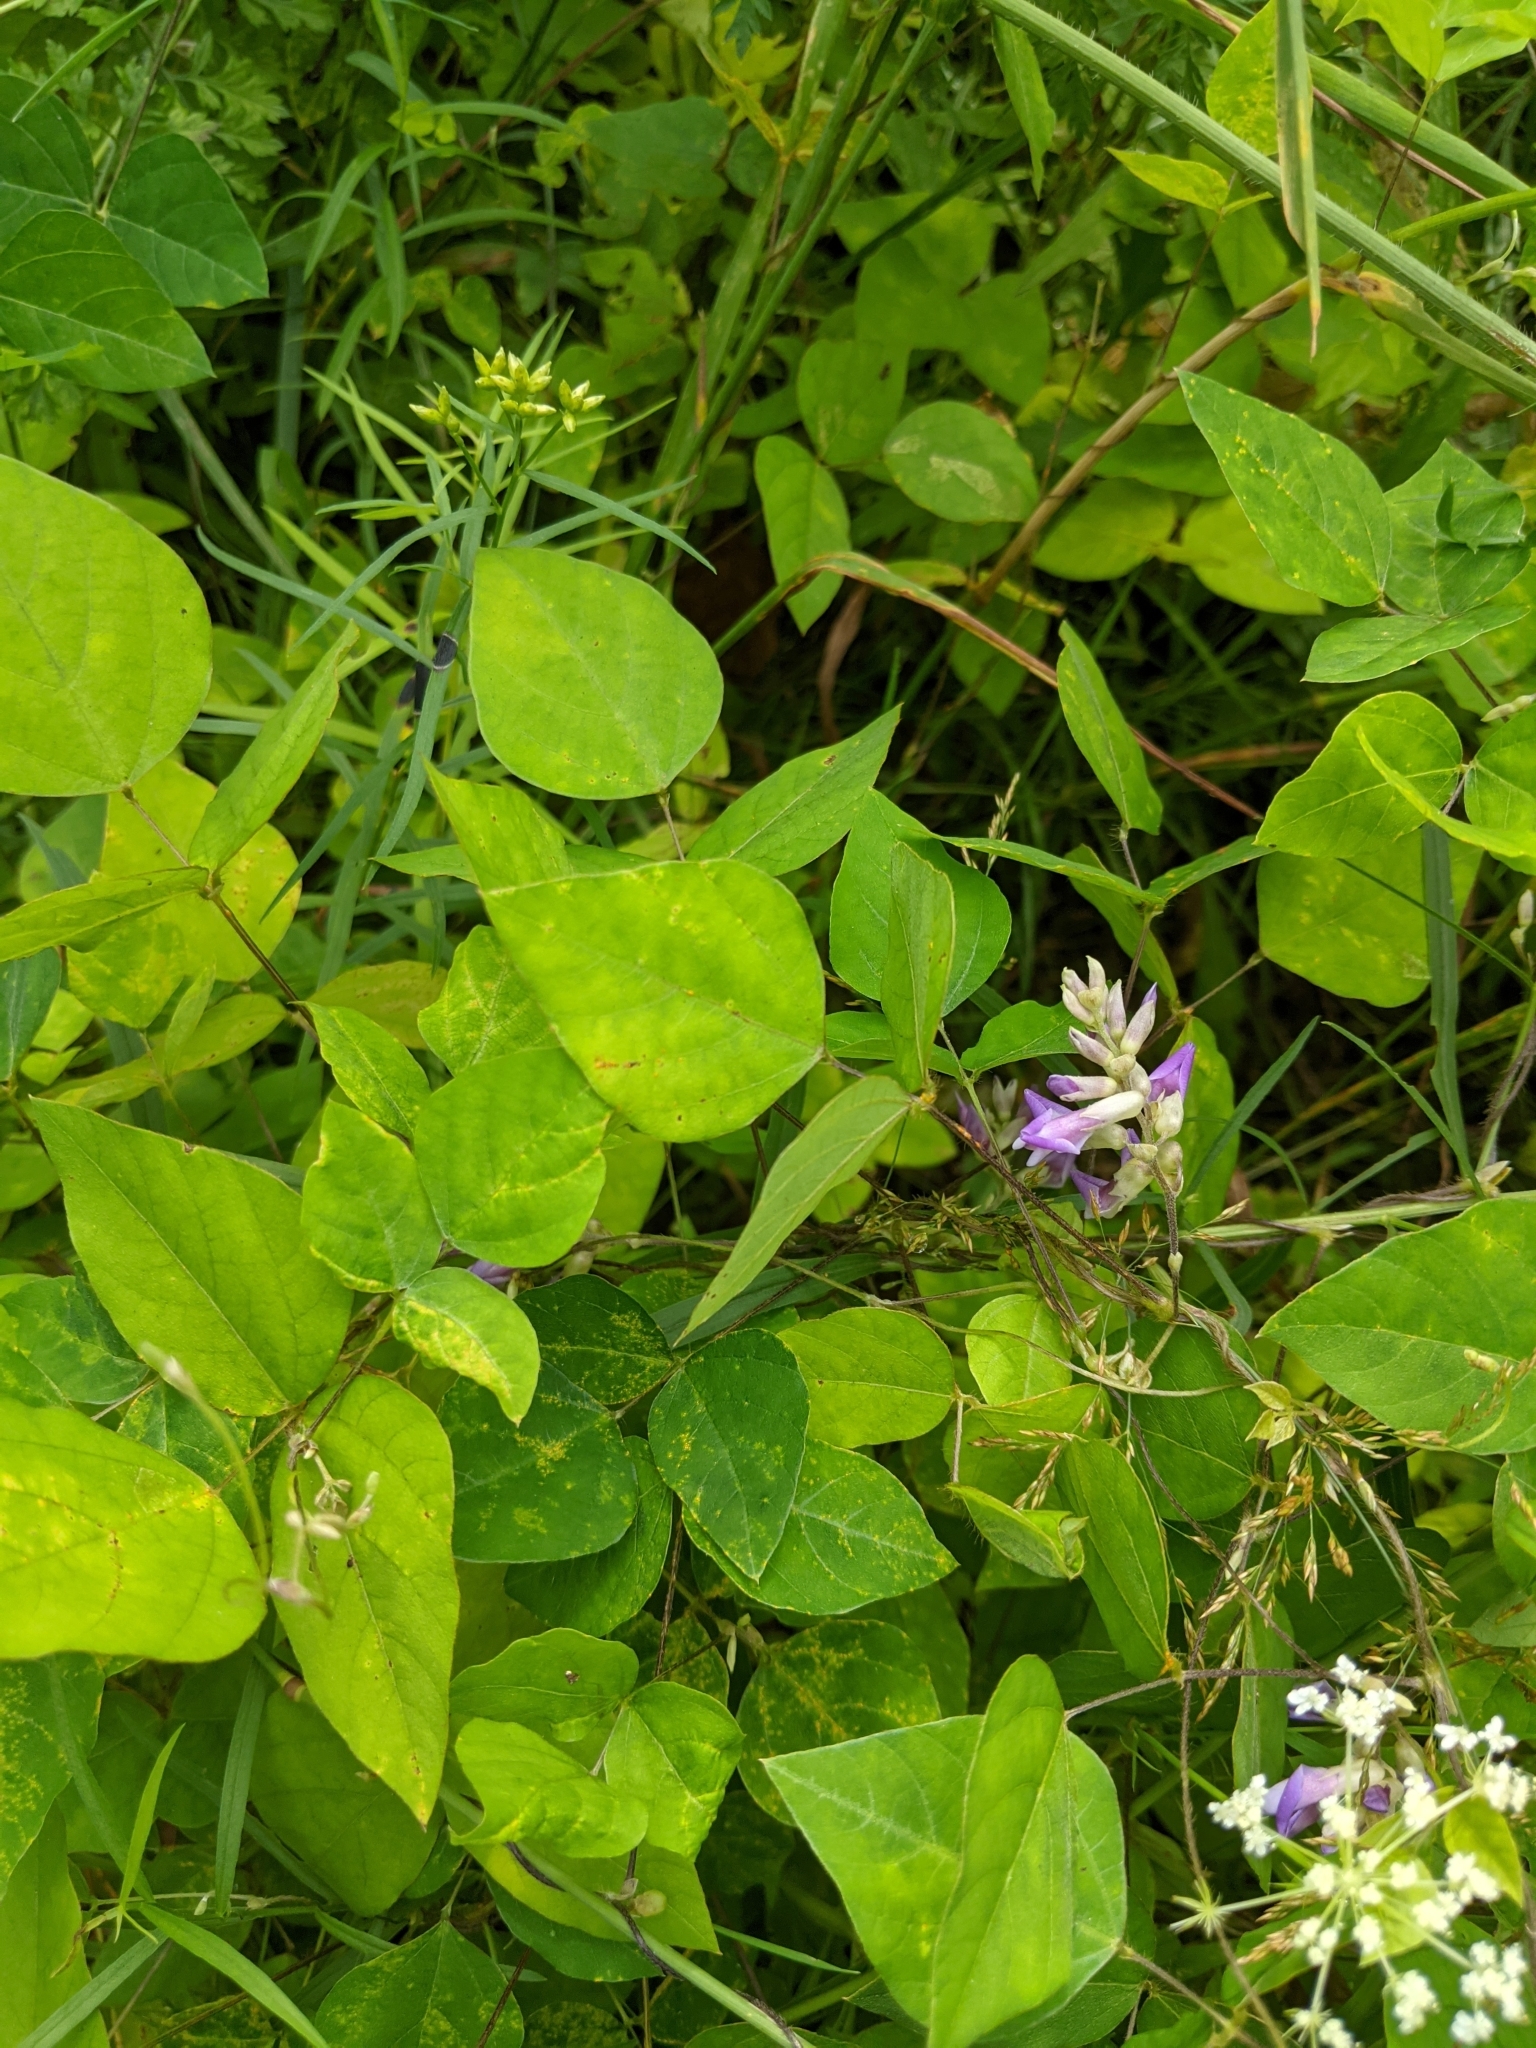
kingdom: Plantae
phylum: Tracheophyta
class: Magnoliopsida
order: Fabales
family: Fabaceae
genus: Amphicarpaea
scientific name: Amphicarpaea bracteata
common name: American hog peanut
